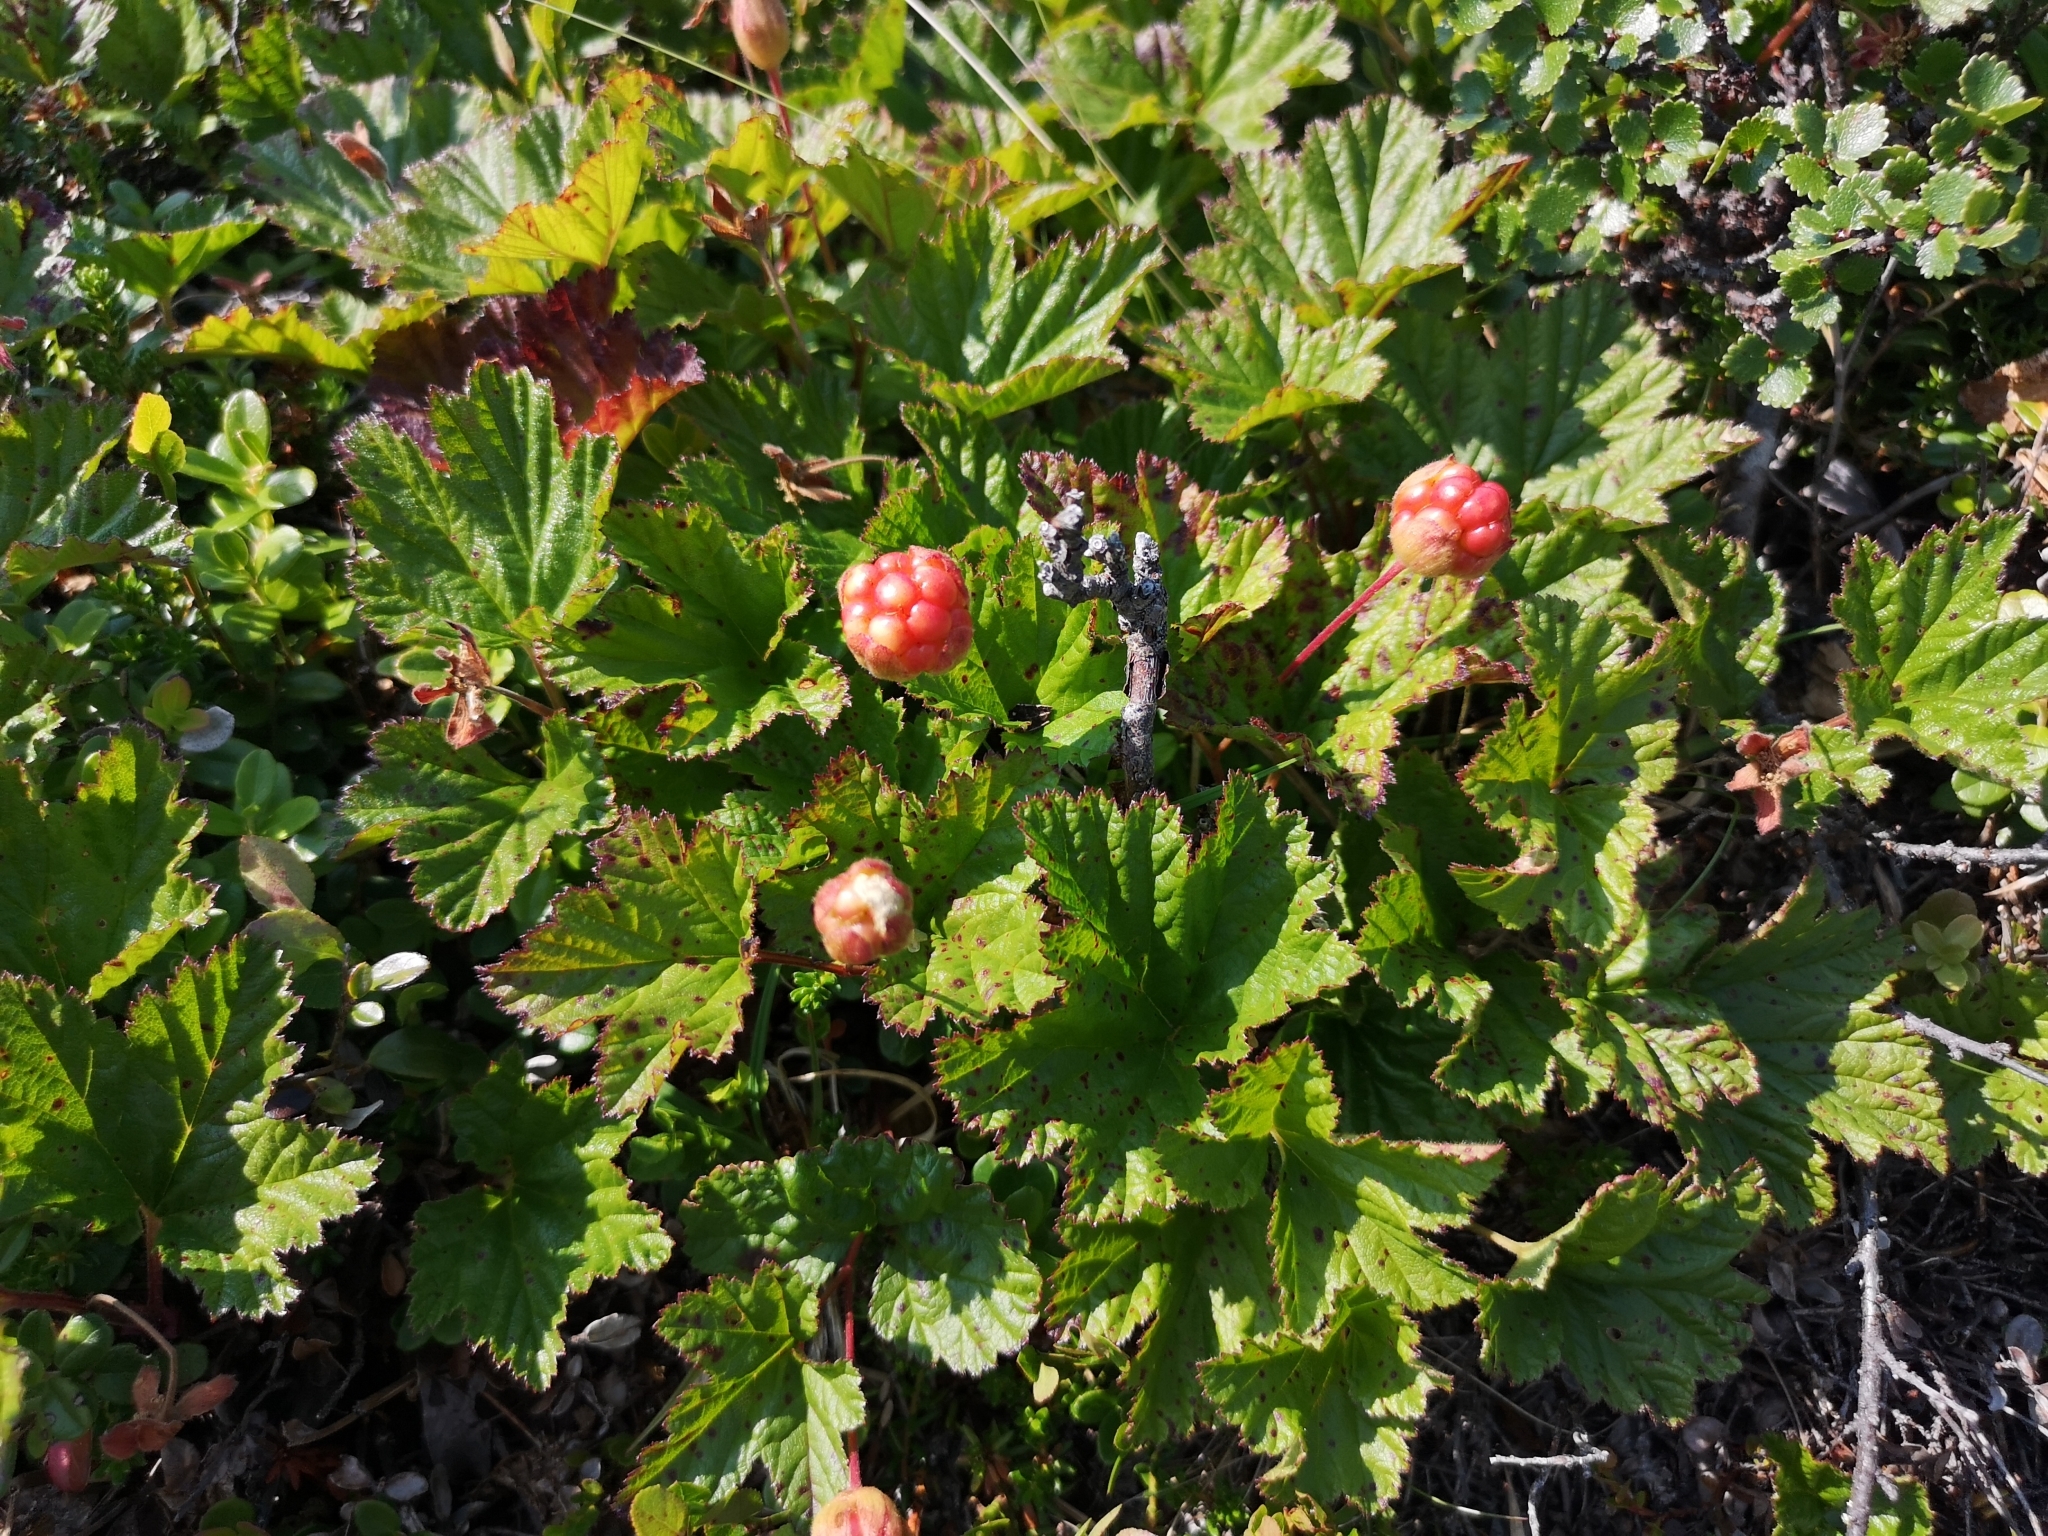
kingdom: Plantae
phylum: Tracheophyta
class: Magnoliopsida
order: Rosales
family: Rosaceae
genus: Rubus
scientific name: Rubus chamaemorus
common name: Cloudberry
